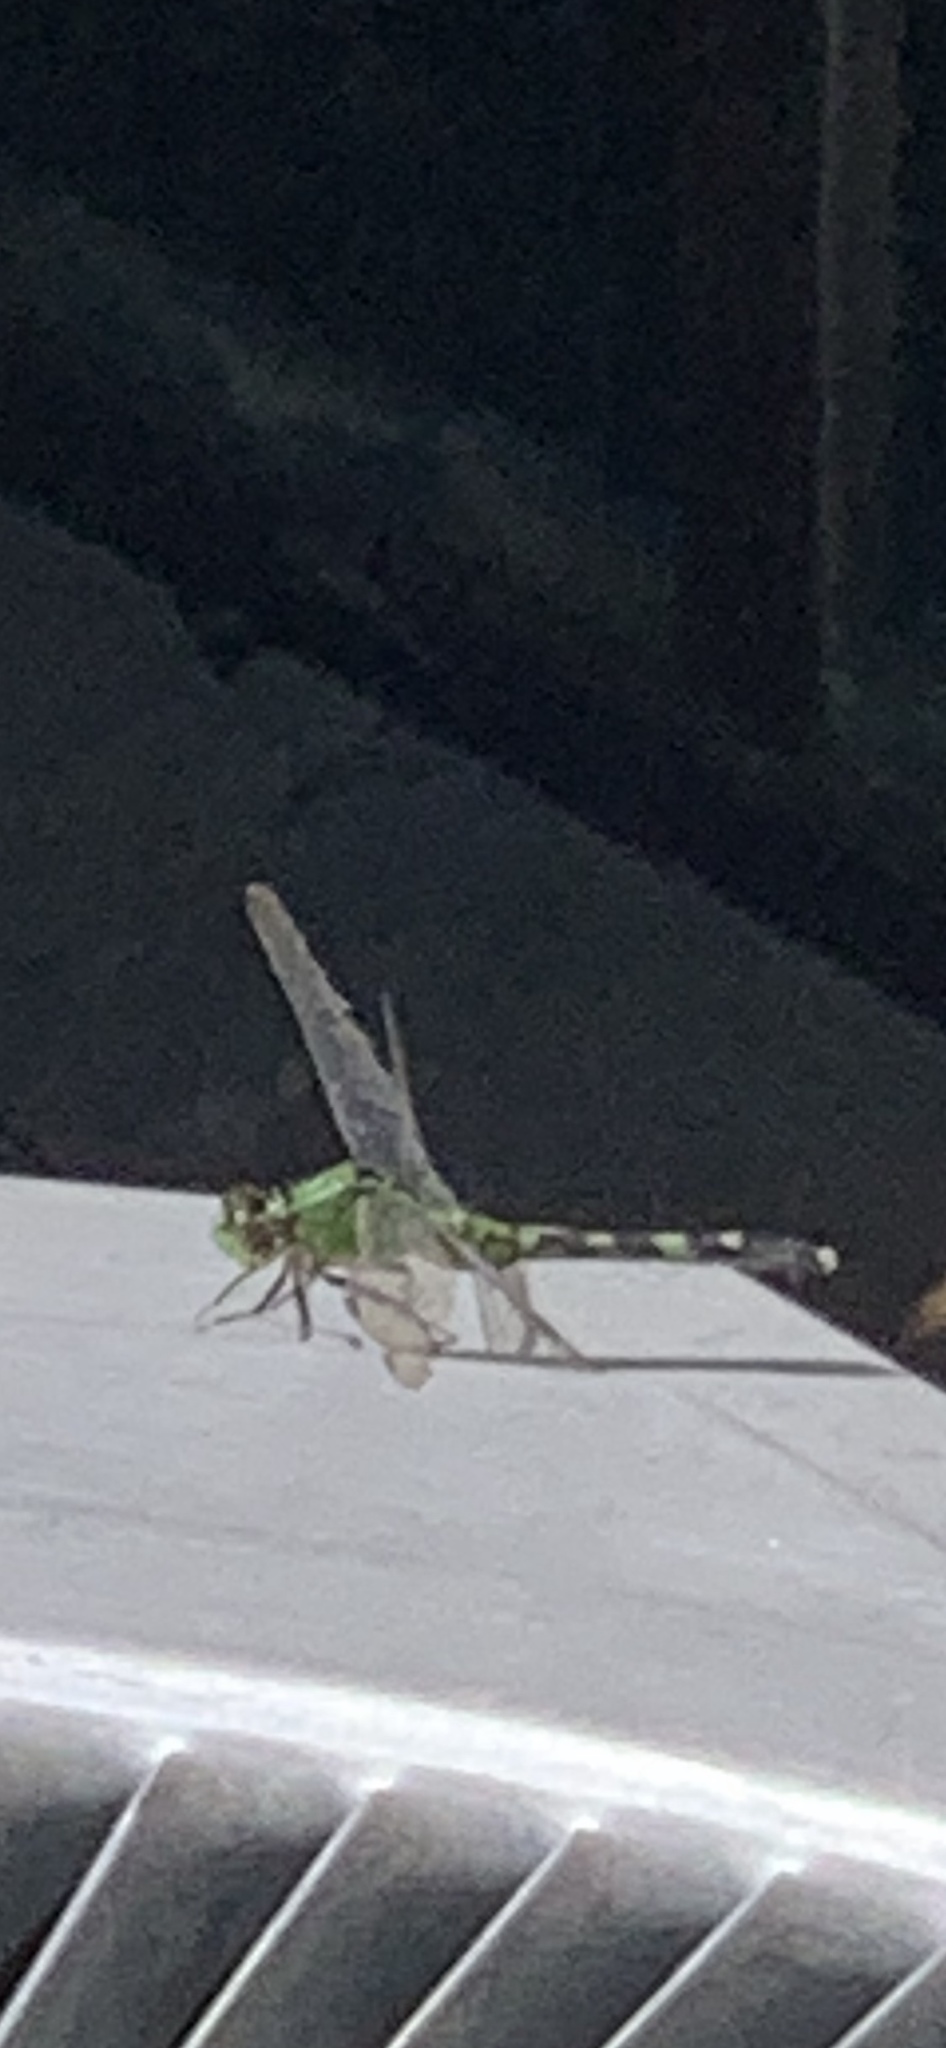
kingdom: Animalia
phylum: Arthropoda
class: Insecta
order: Odonata
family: Libellulidae
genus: Erythemis
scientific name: Erythemis simplicicollis
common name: Eastern pondhawk
